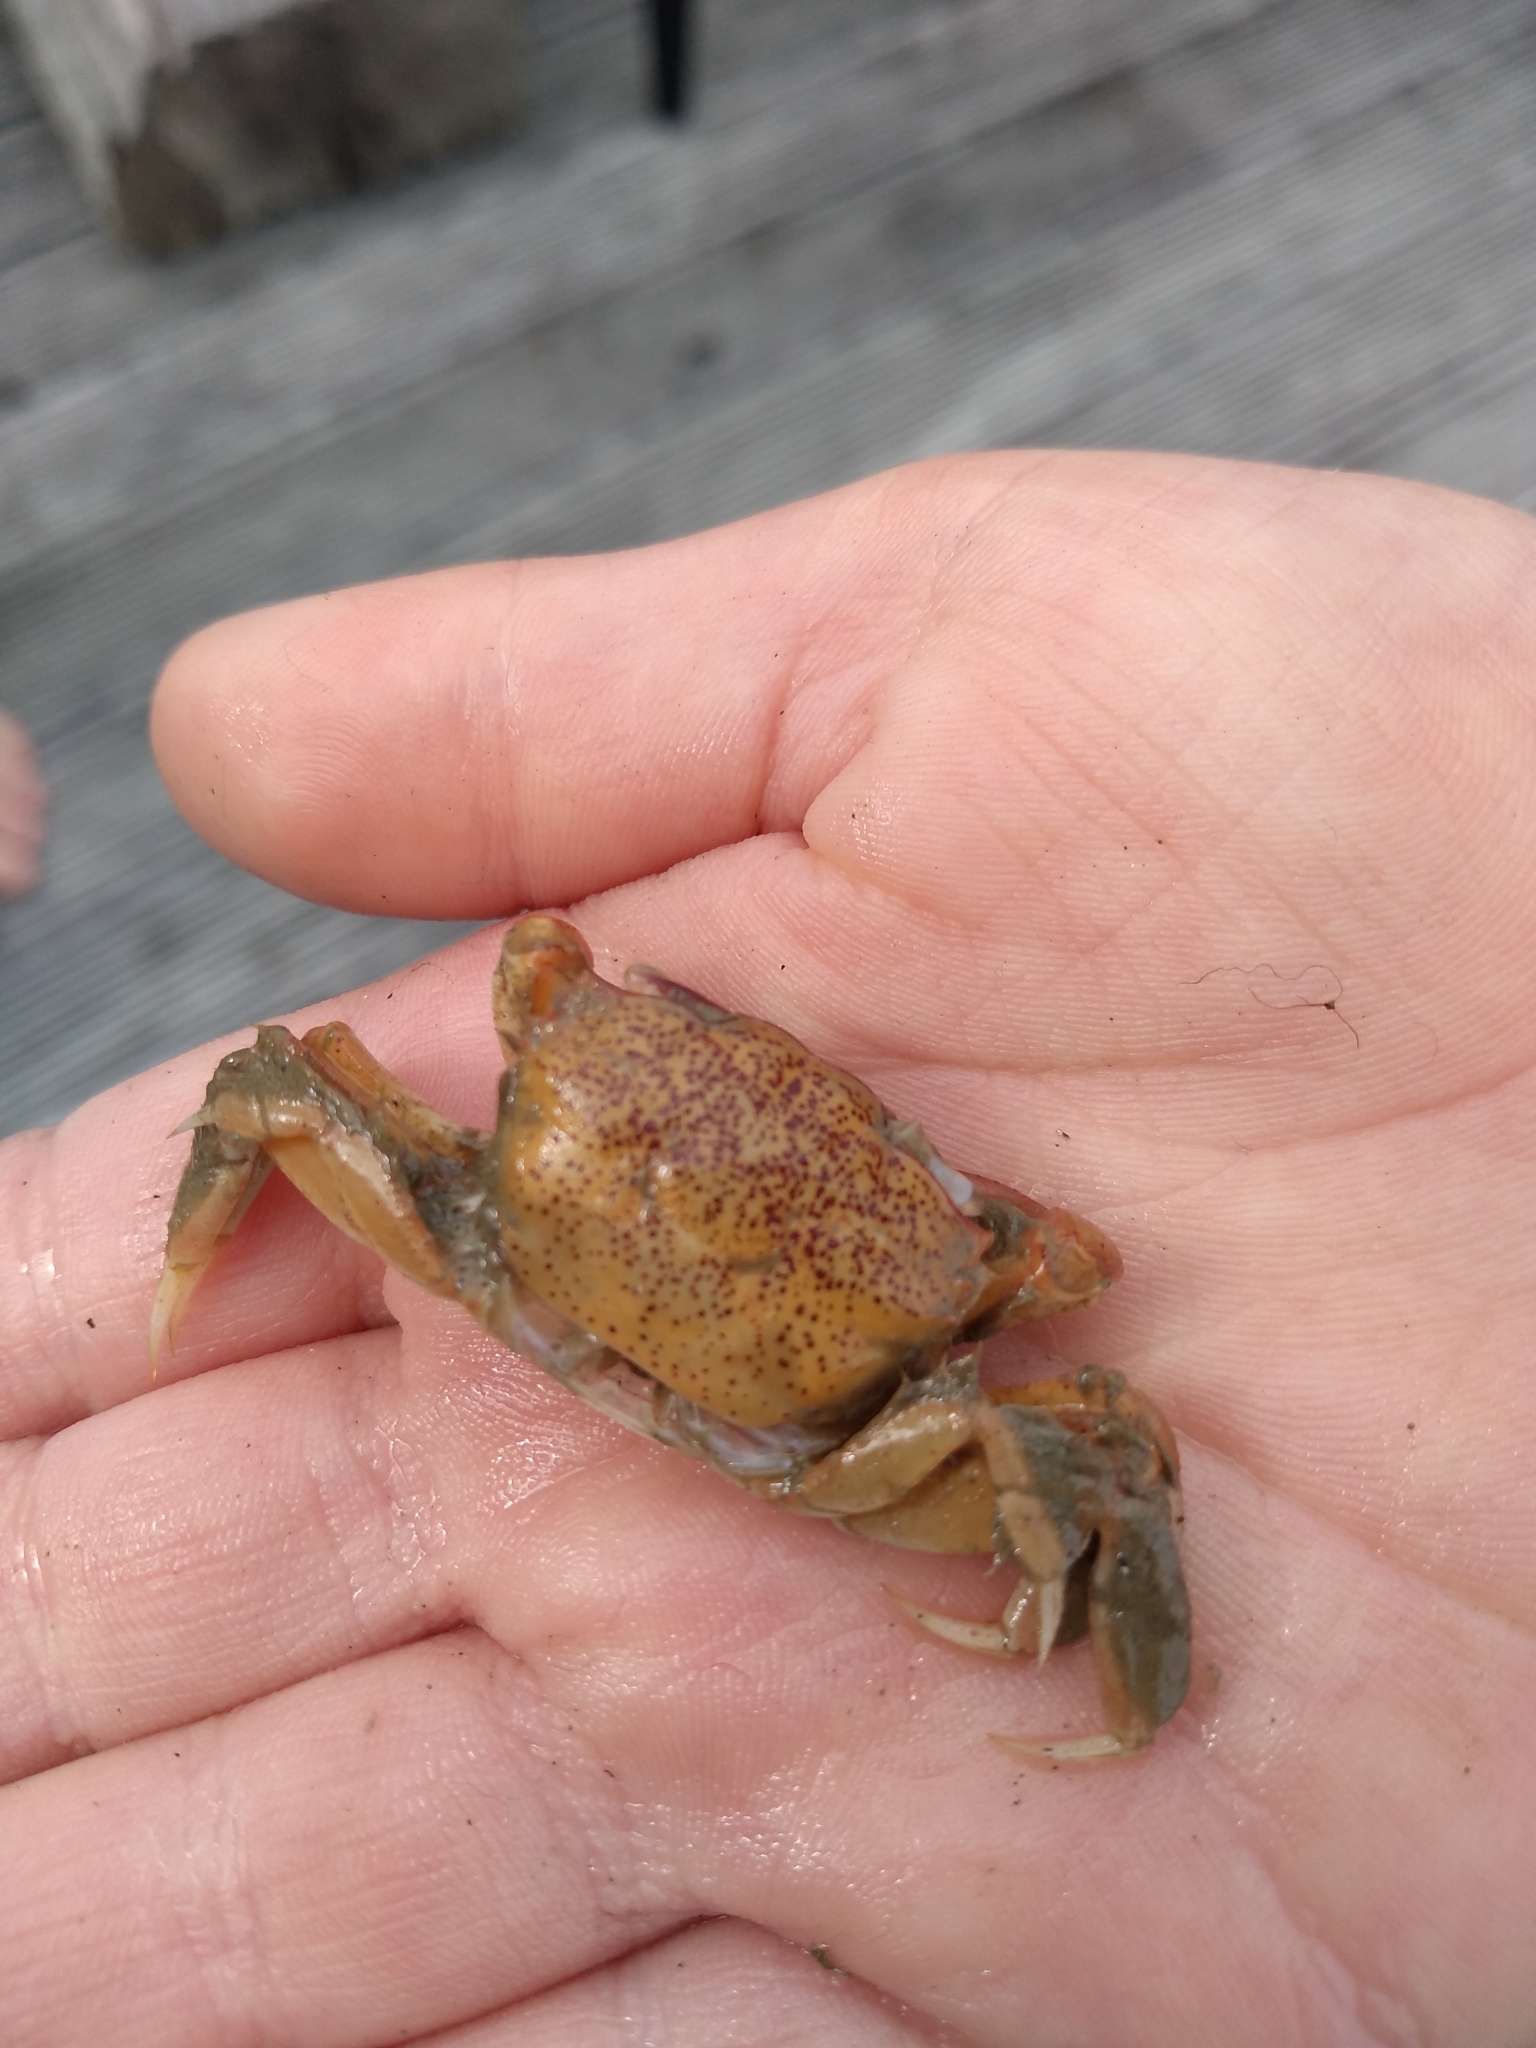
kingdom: Animalia
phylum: Arthropoda
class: Malacostraca
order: Decapoda
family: Macrophthalmidae
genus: Hemiplax
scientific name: Hemiplax hirtipes
